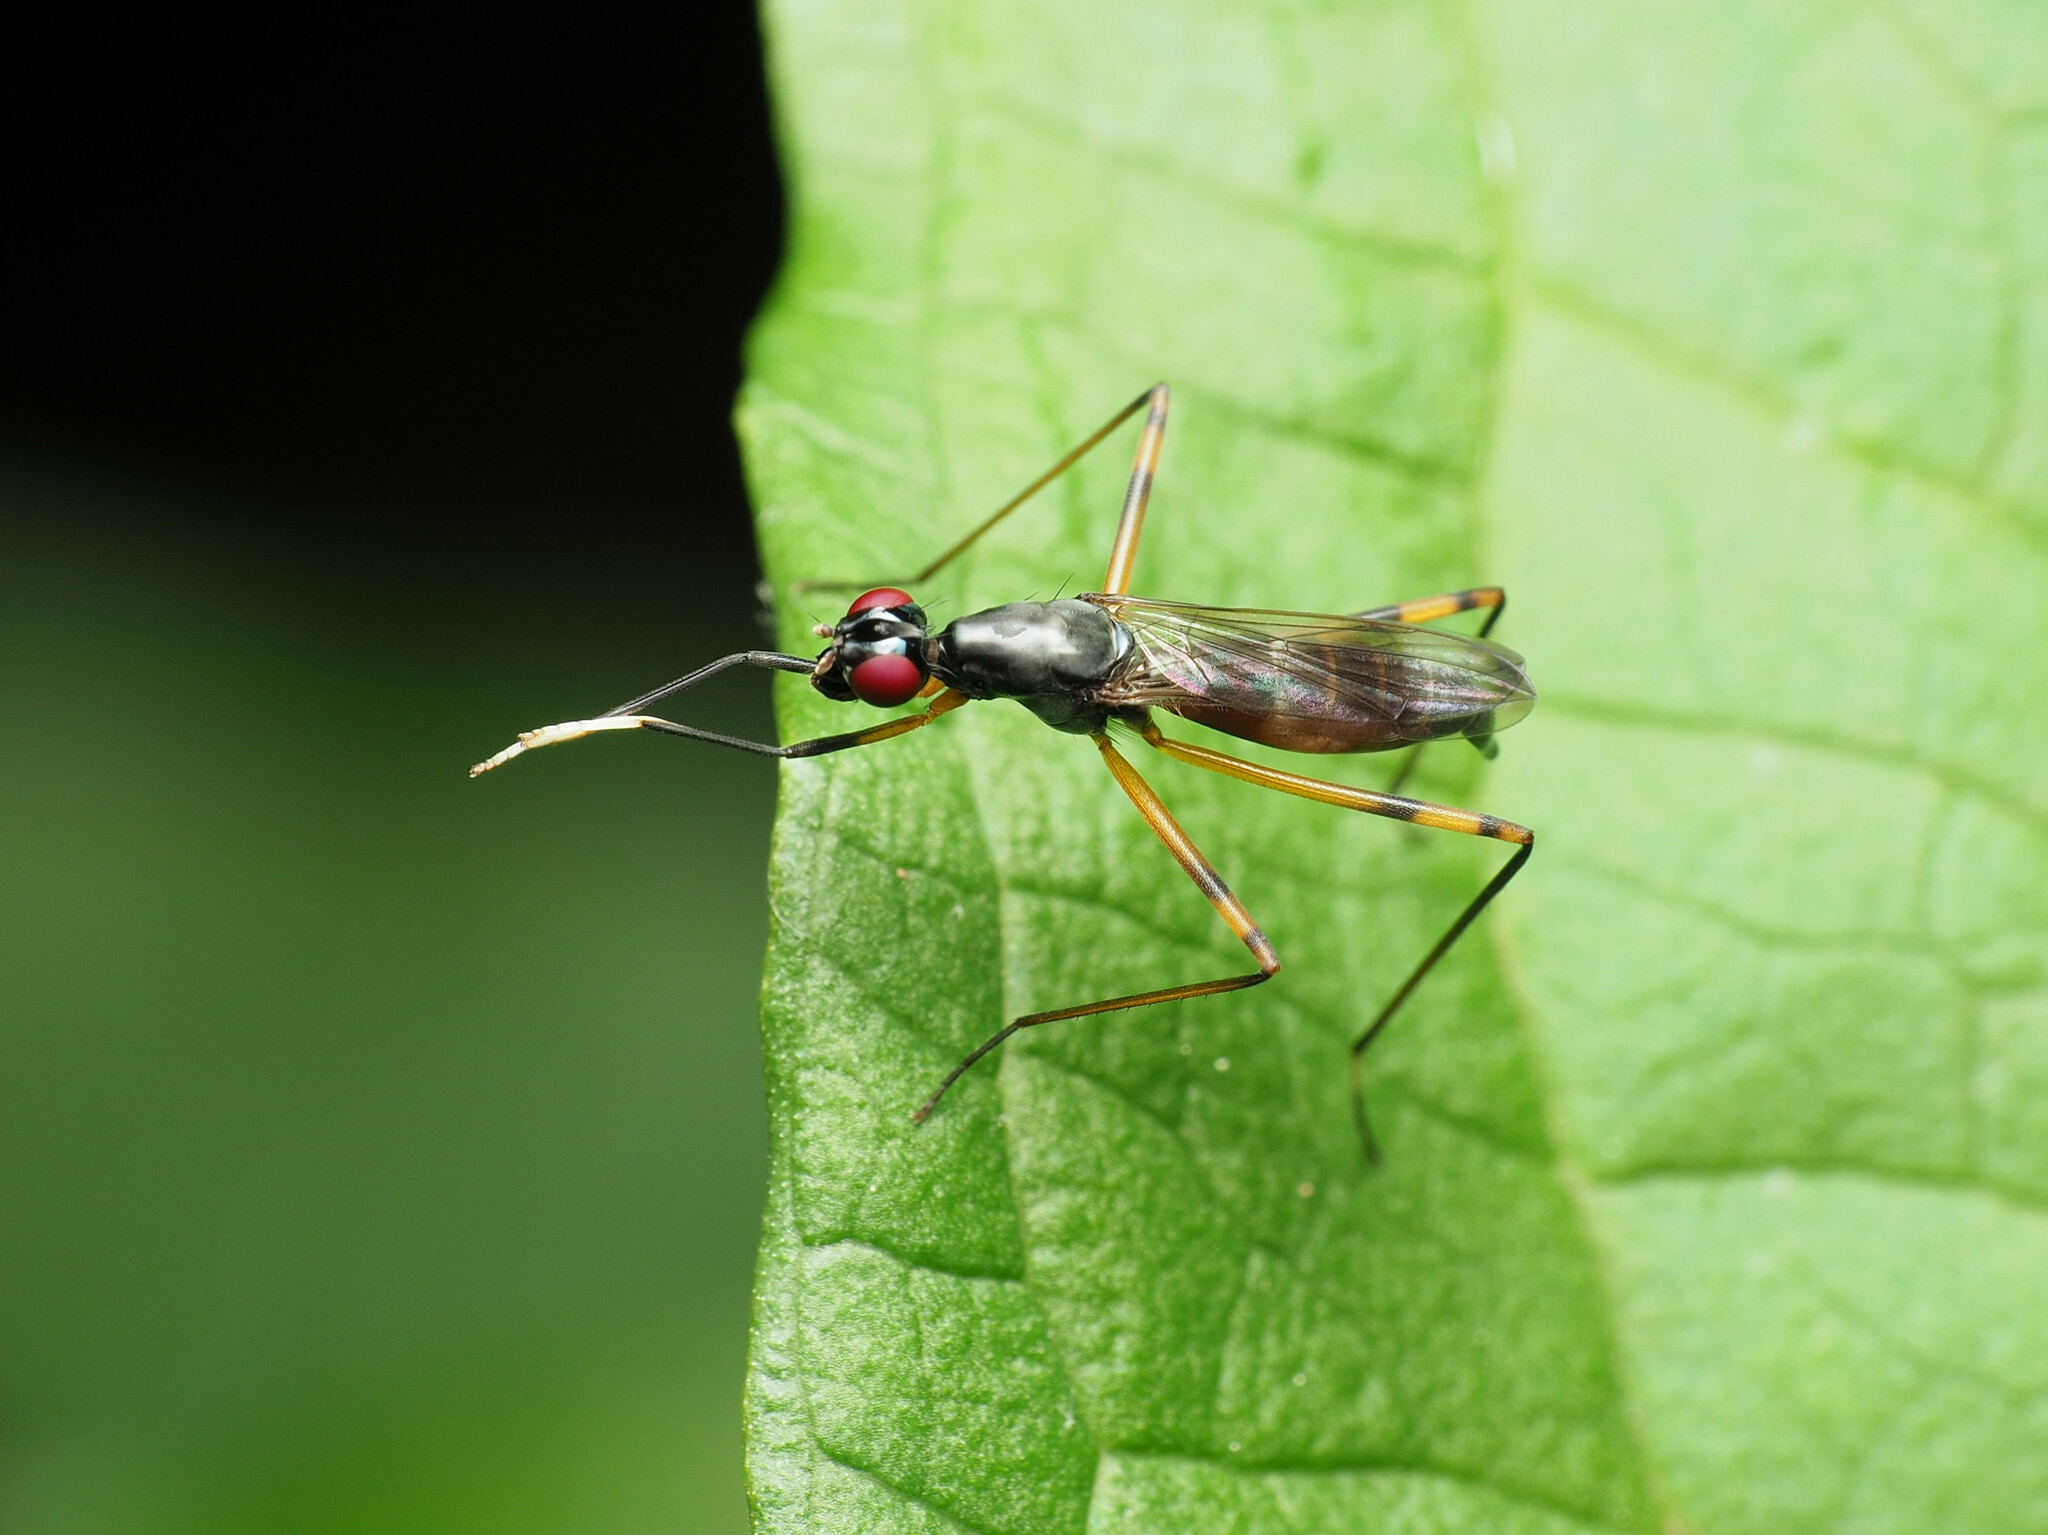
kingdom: Animalia
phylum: Arthropoda
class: Insecta
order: Diptera
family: Micropezidae
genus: Rainieria
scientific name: Rainieria antennaepes
